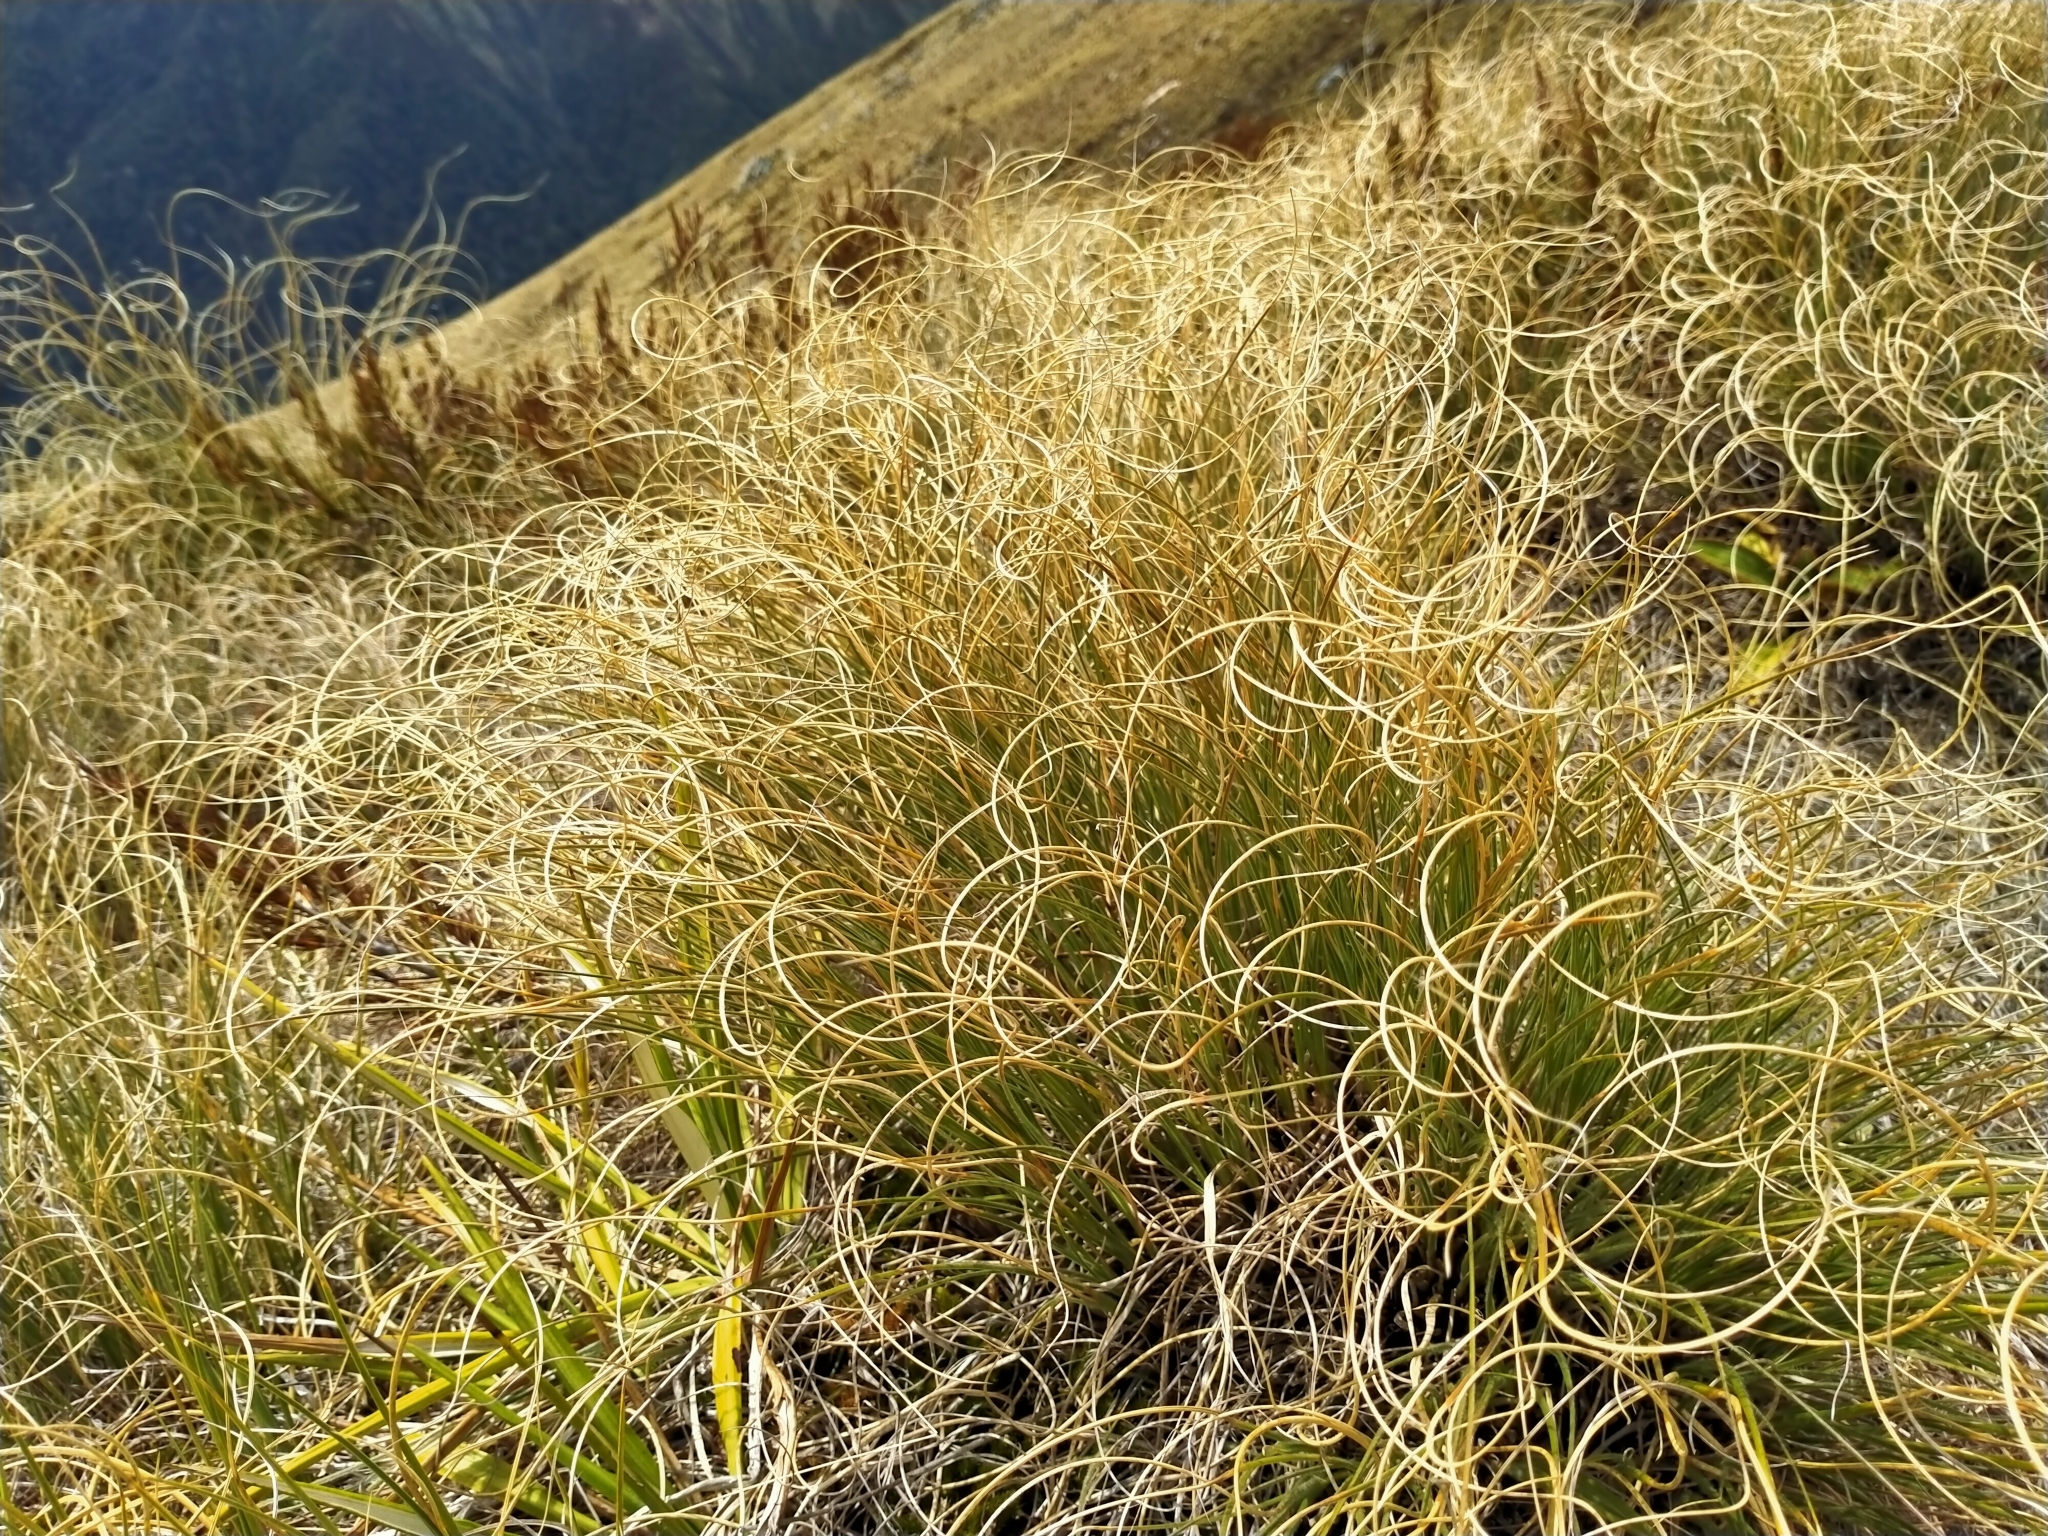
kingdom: Plantae
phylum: Tracheophyta
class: Liliopsida
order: Poales
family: Poaceae
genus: Chionochloa
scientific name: Chionochloa crassiuscula
